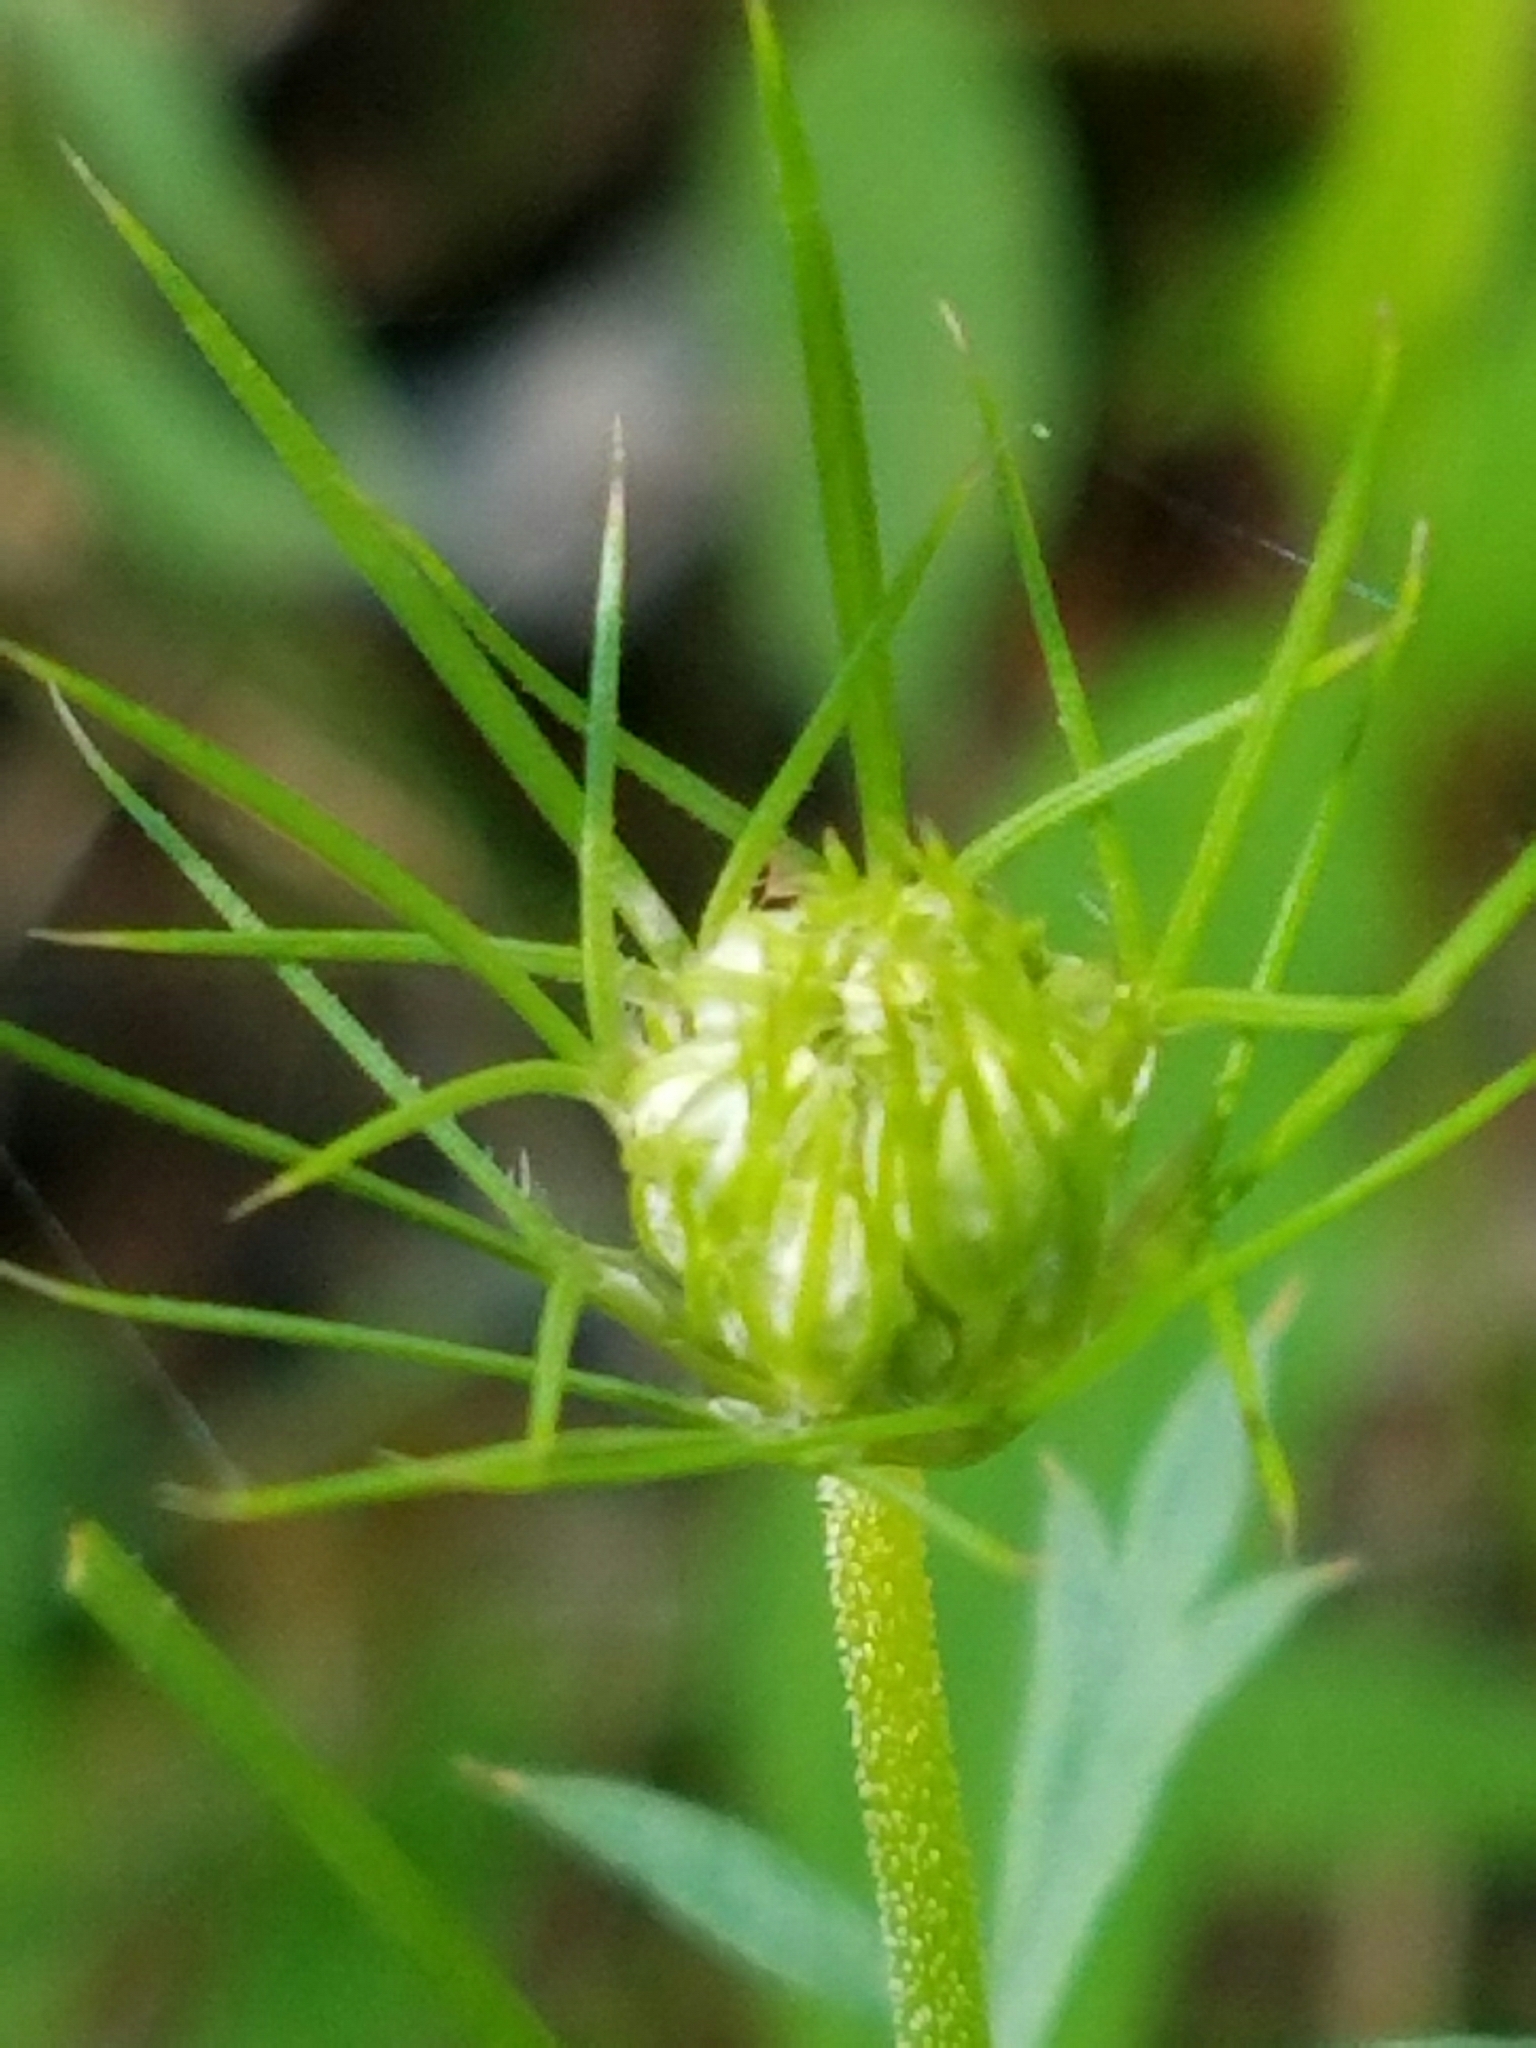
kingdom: Plantae
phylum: Tracheophyta
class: Magnoliopsida
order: Apiales
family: Apiaceae
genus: Daucus
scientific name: Daucus carota
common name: Wild carrot
